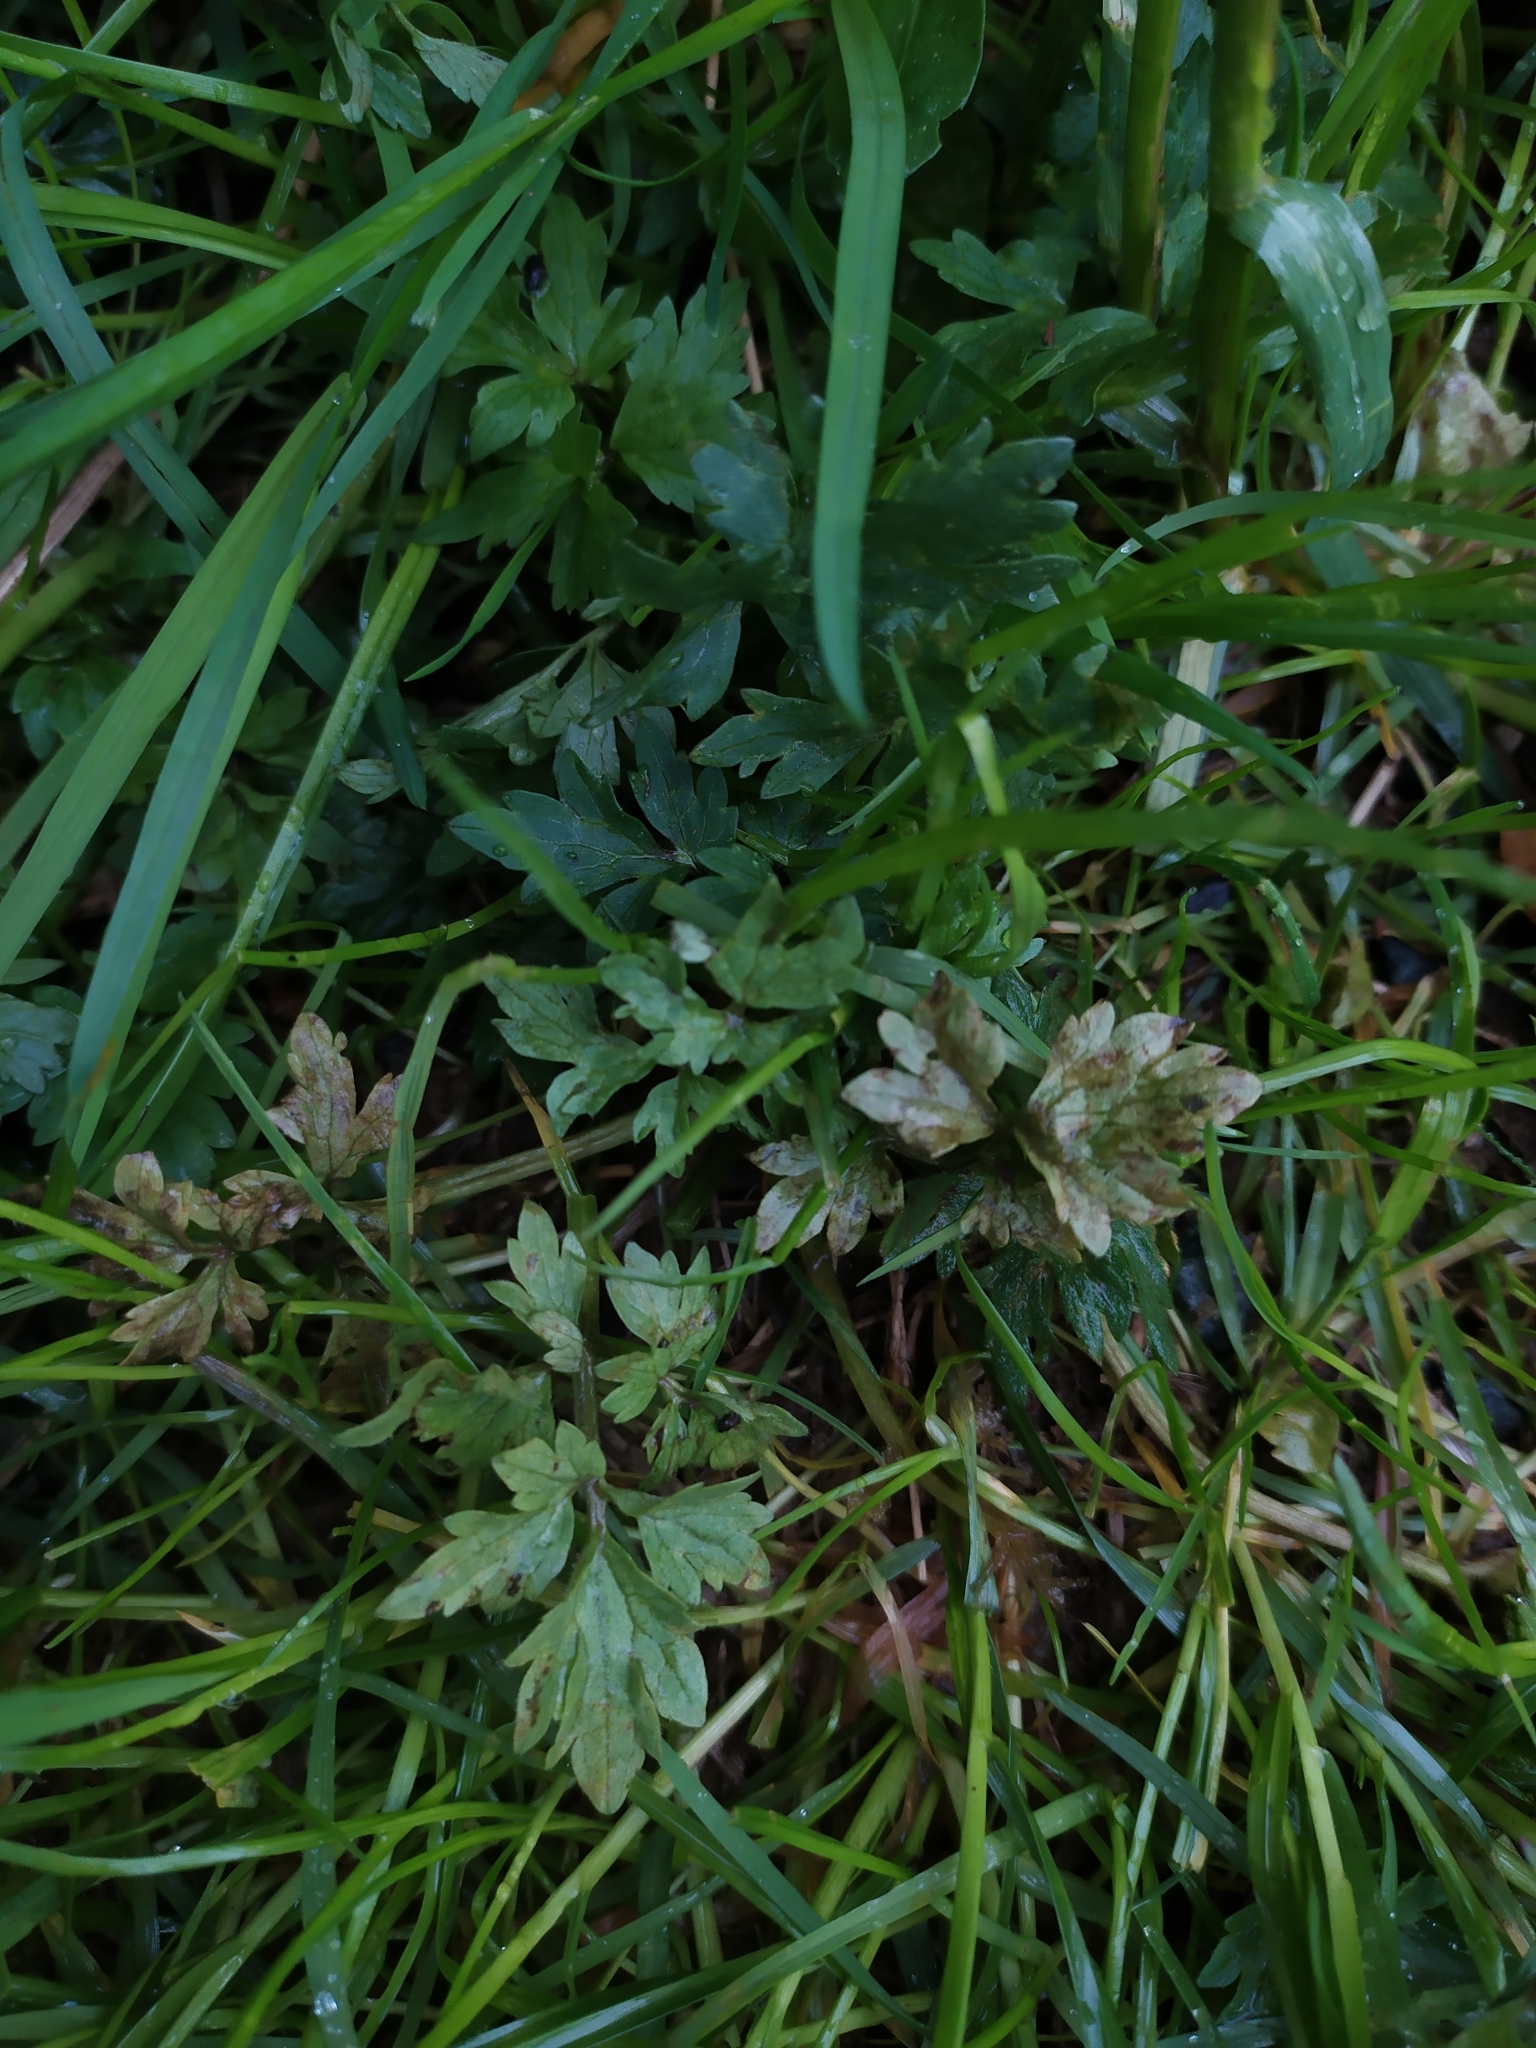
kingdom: Chromista
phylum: Oomycota
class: Peronosporea
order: Peronosporales
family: Peronosporaceae
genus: Peronospora
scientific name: Peronospora ranunculi
